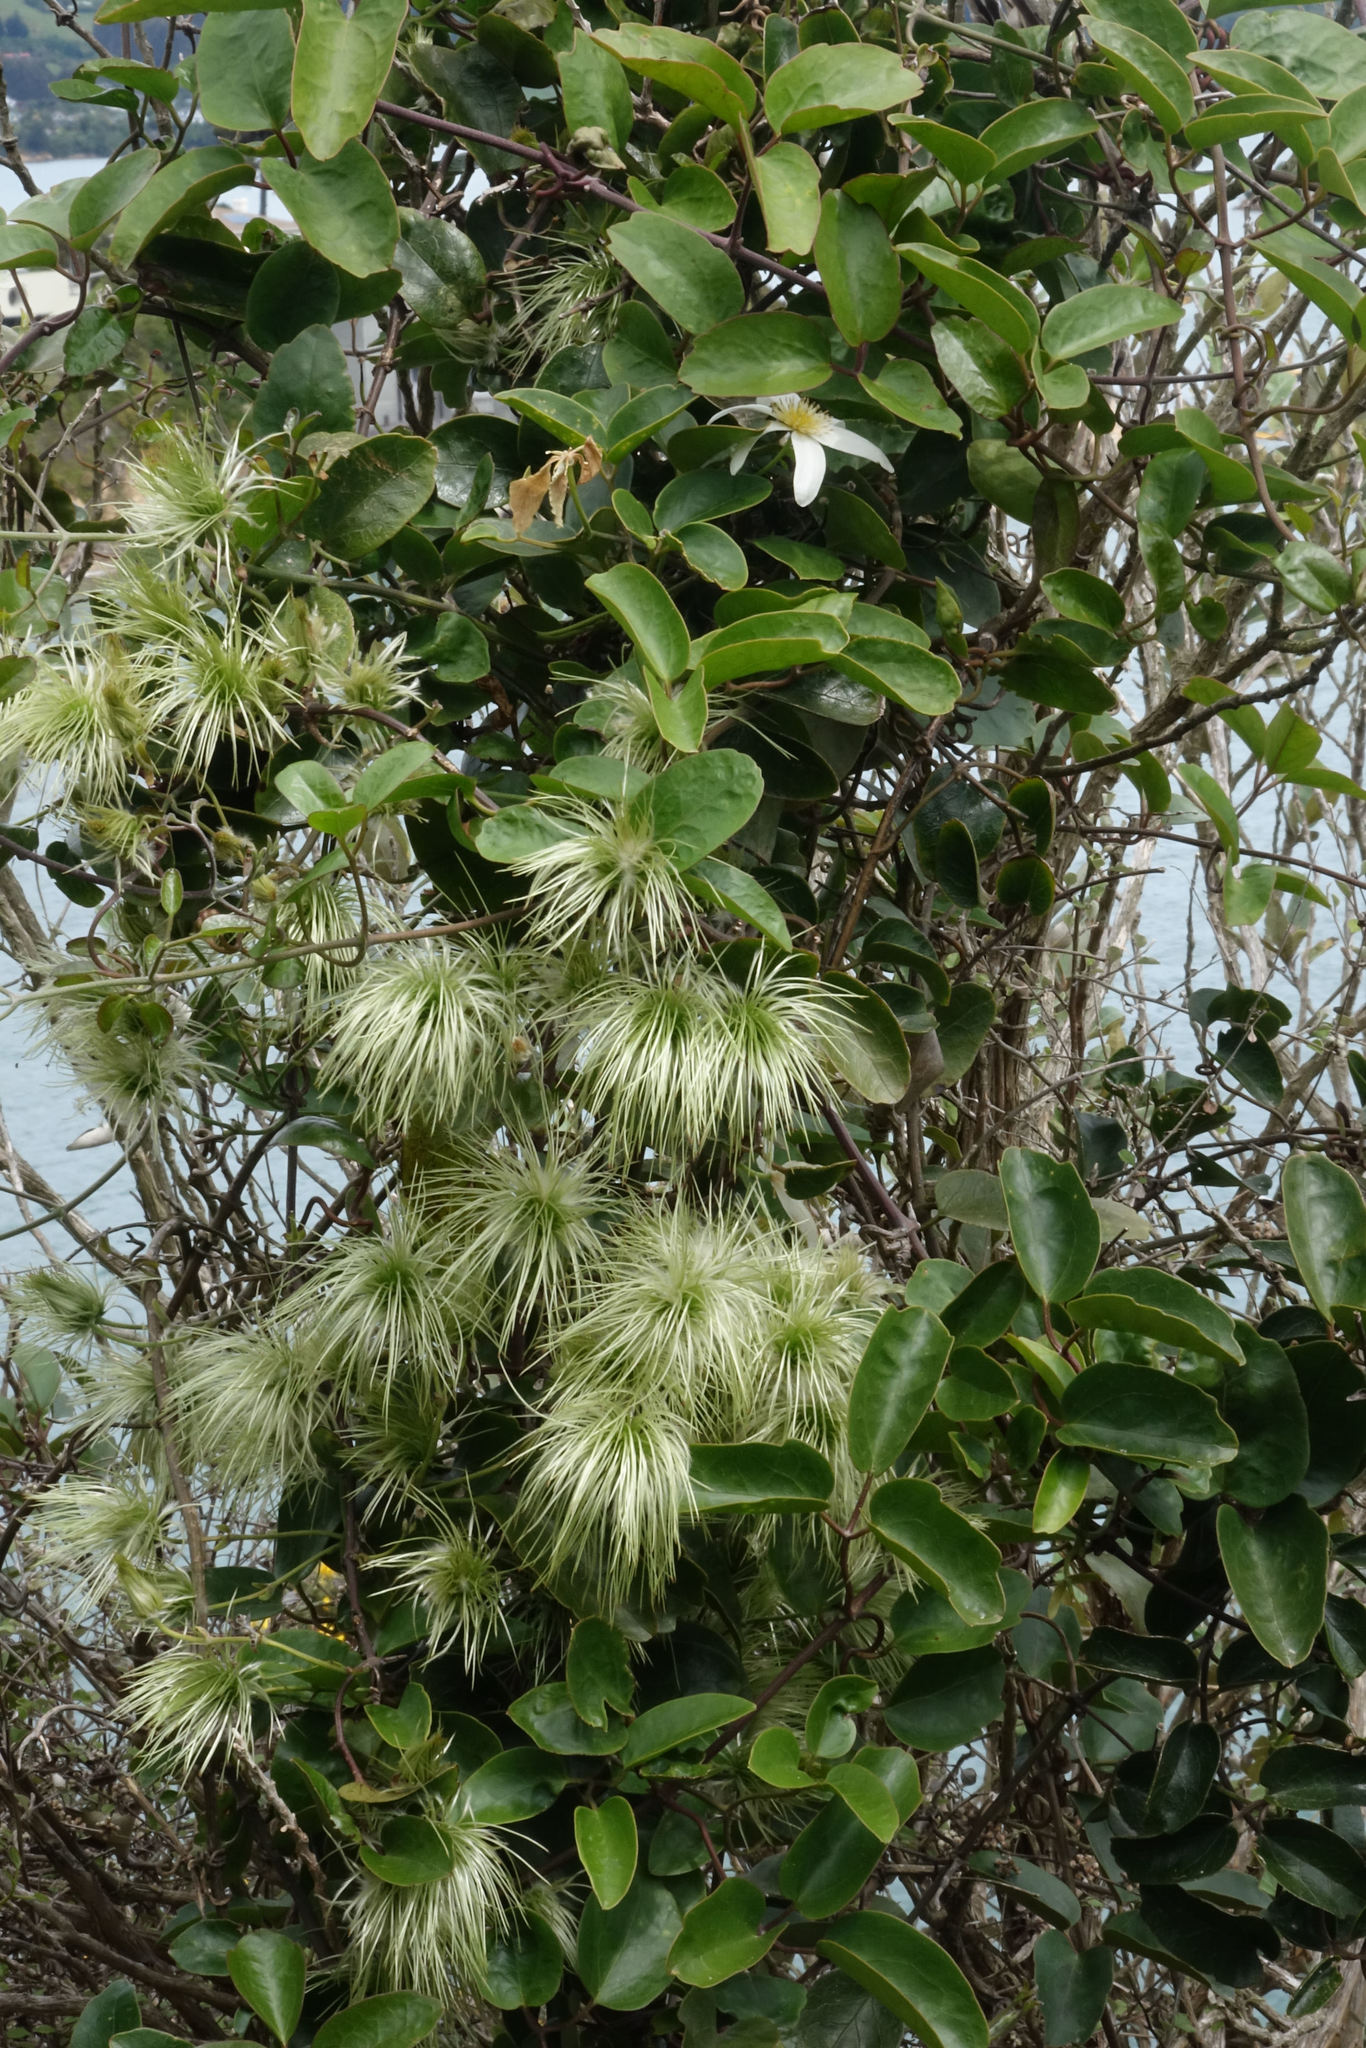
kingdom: Plantae
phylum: Tracheophyta
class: Magnoliopsida
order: Ranunculales
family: Ranunculaceae
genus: Clematis
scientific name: Clematis paniculata
